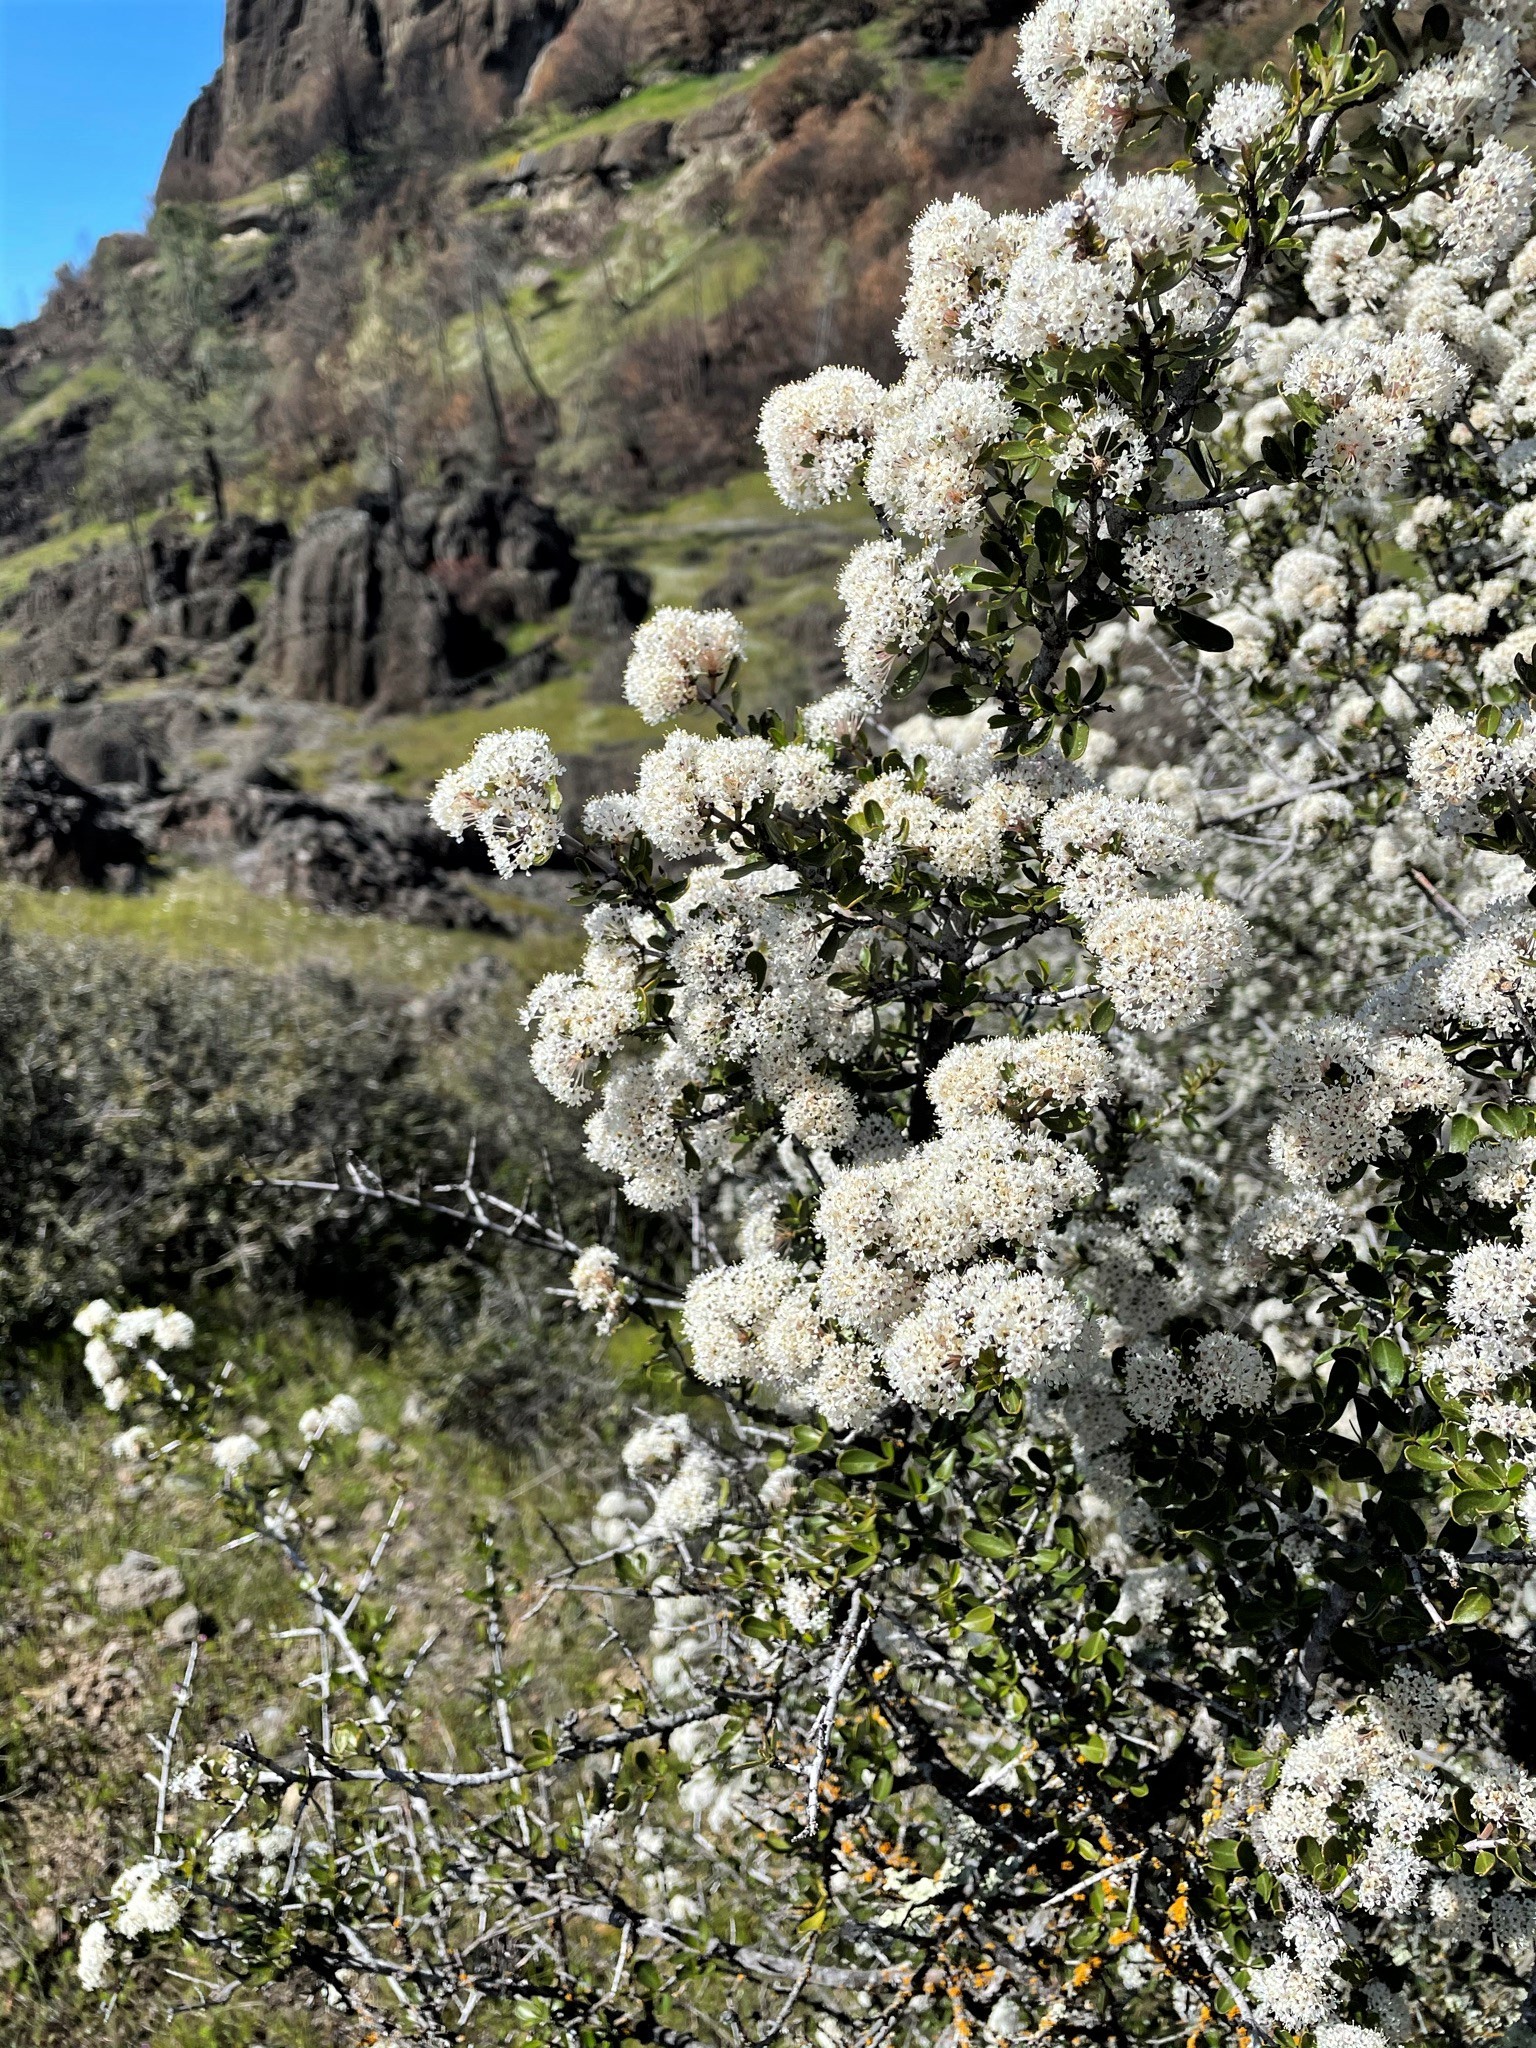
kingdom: Plantae
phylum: Tracheophyta
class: Magnoliopsida
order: Rosales
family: Rhamnaceae
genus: Ceanothus
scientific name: Ceanothus cuneatus
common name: Cuneate ceanothus
